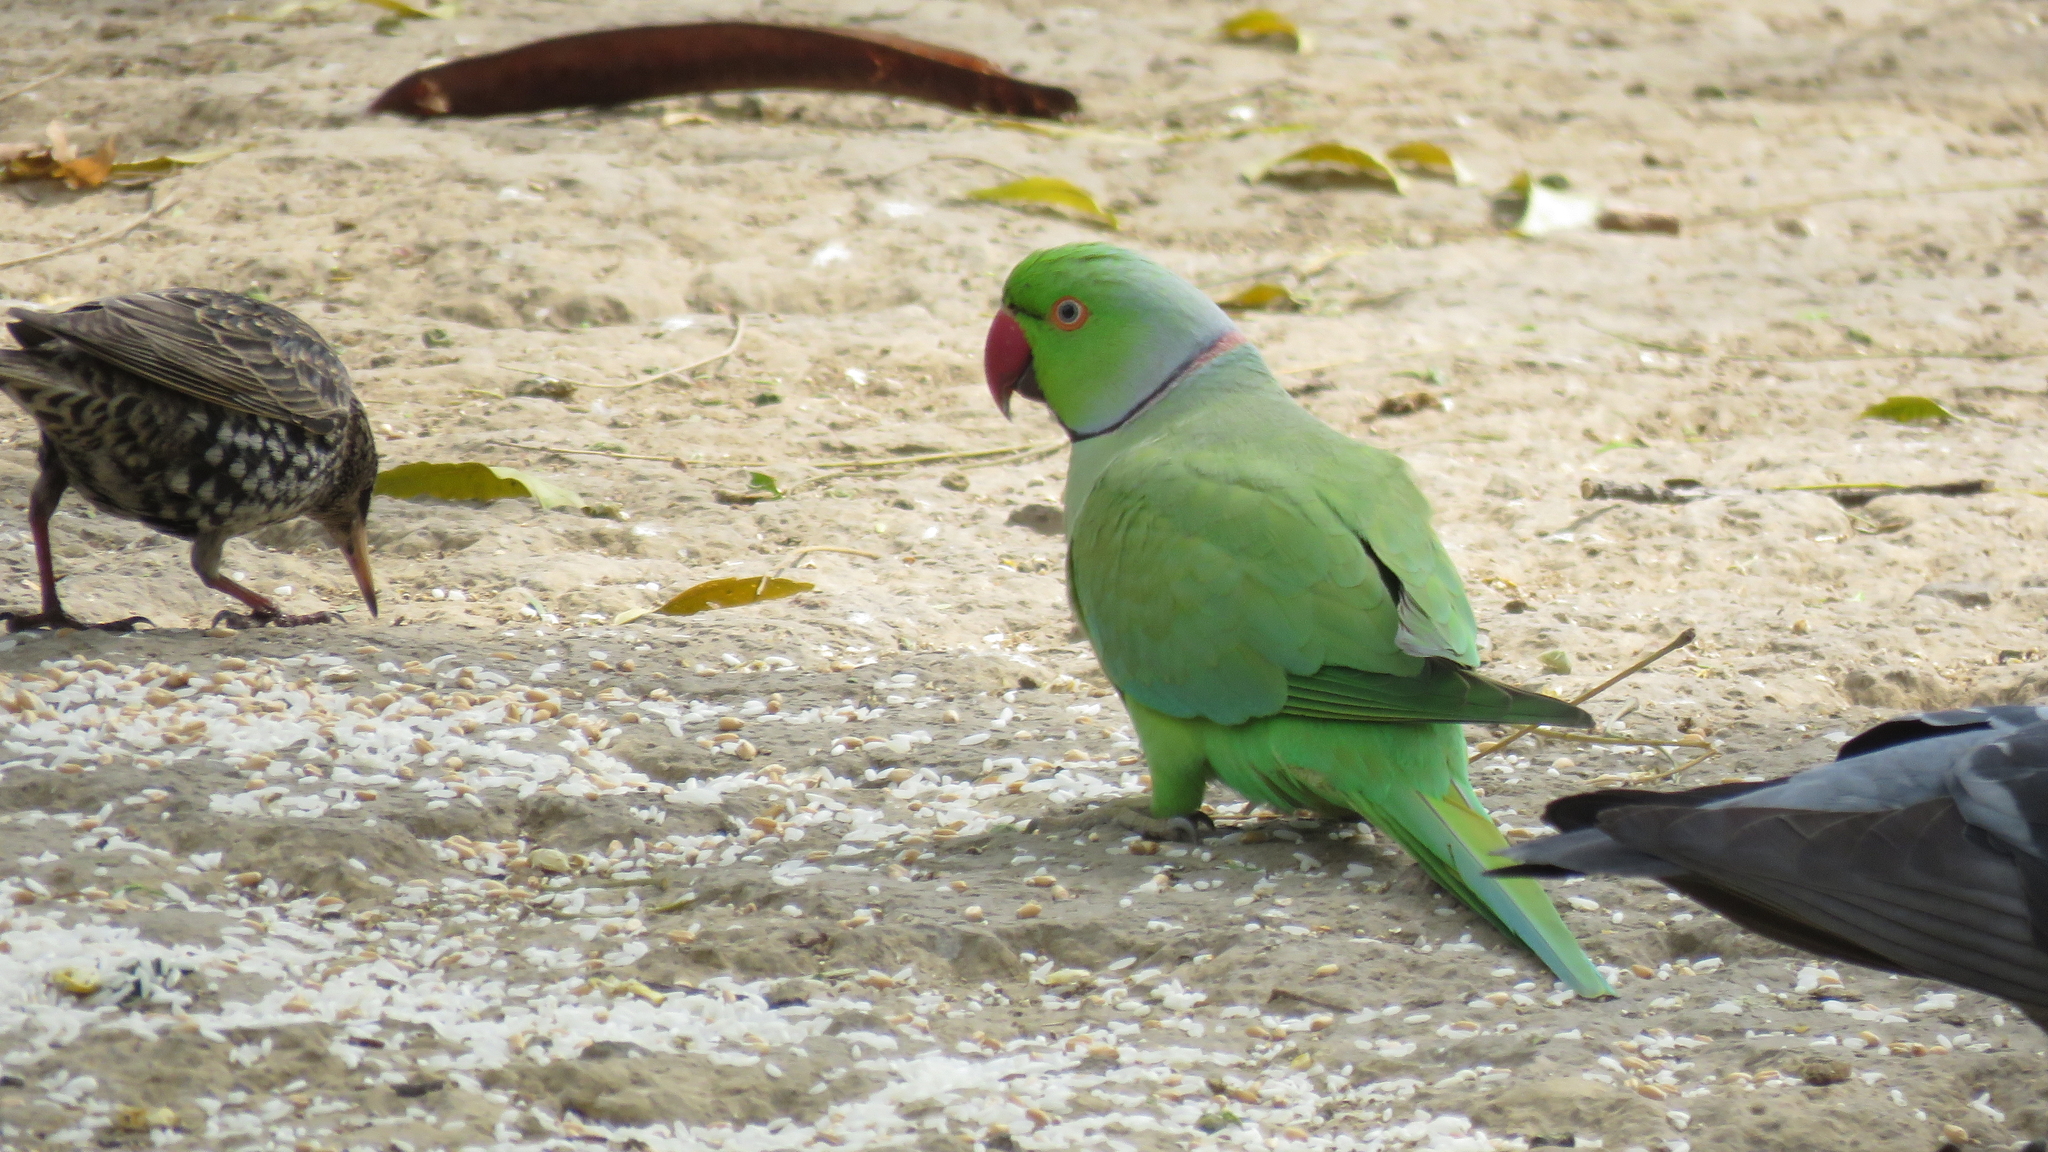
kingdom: Animalia
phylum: Chordata
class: Aves
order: Psittaciformes
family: Psittacidae
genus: Psittacula
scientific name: Psittacula krameri
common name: Rose-ringed parakeet
